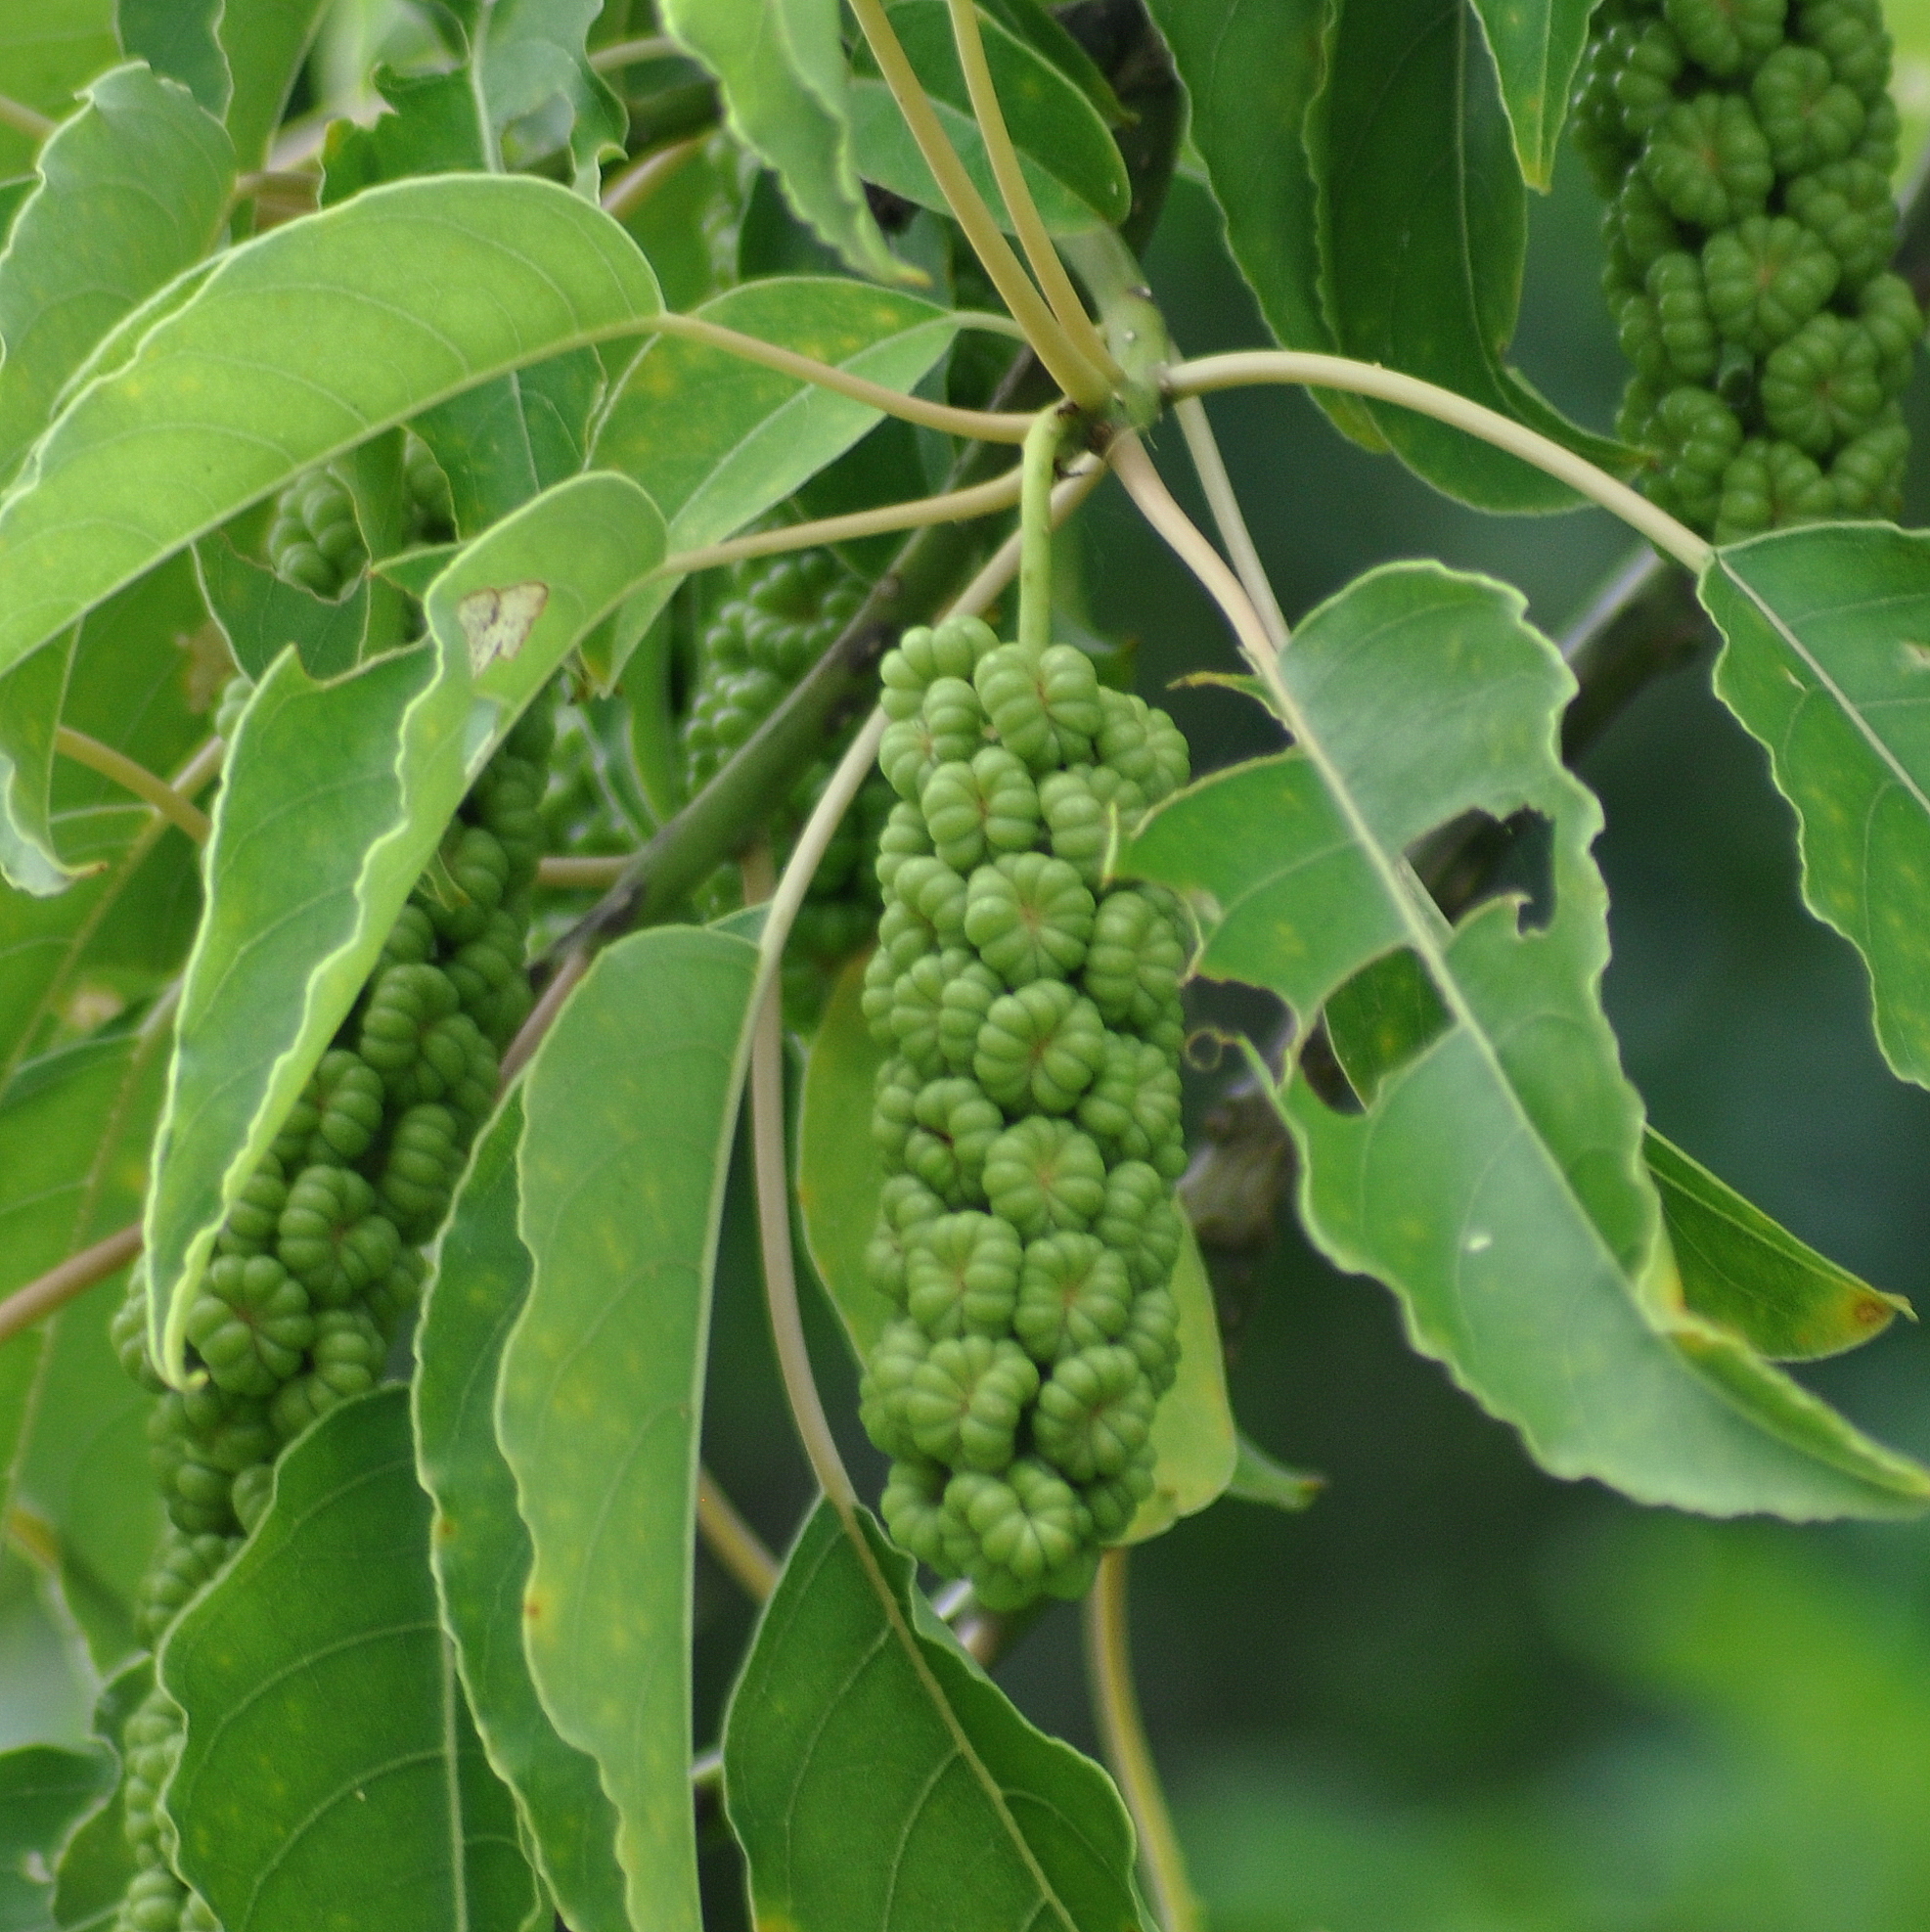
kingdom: Plantae
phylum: Tracheophyta
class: Magnoliopsida
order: Caryophyllales
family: Phytolaccaceae
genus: Phytolacca
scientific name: Phytolacca dioica
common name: Pokeweed
